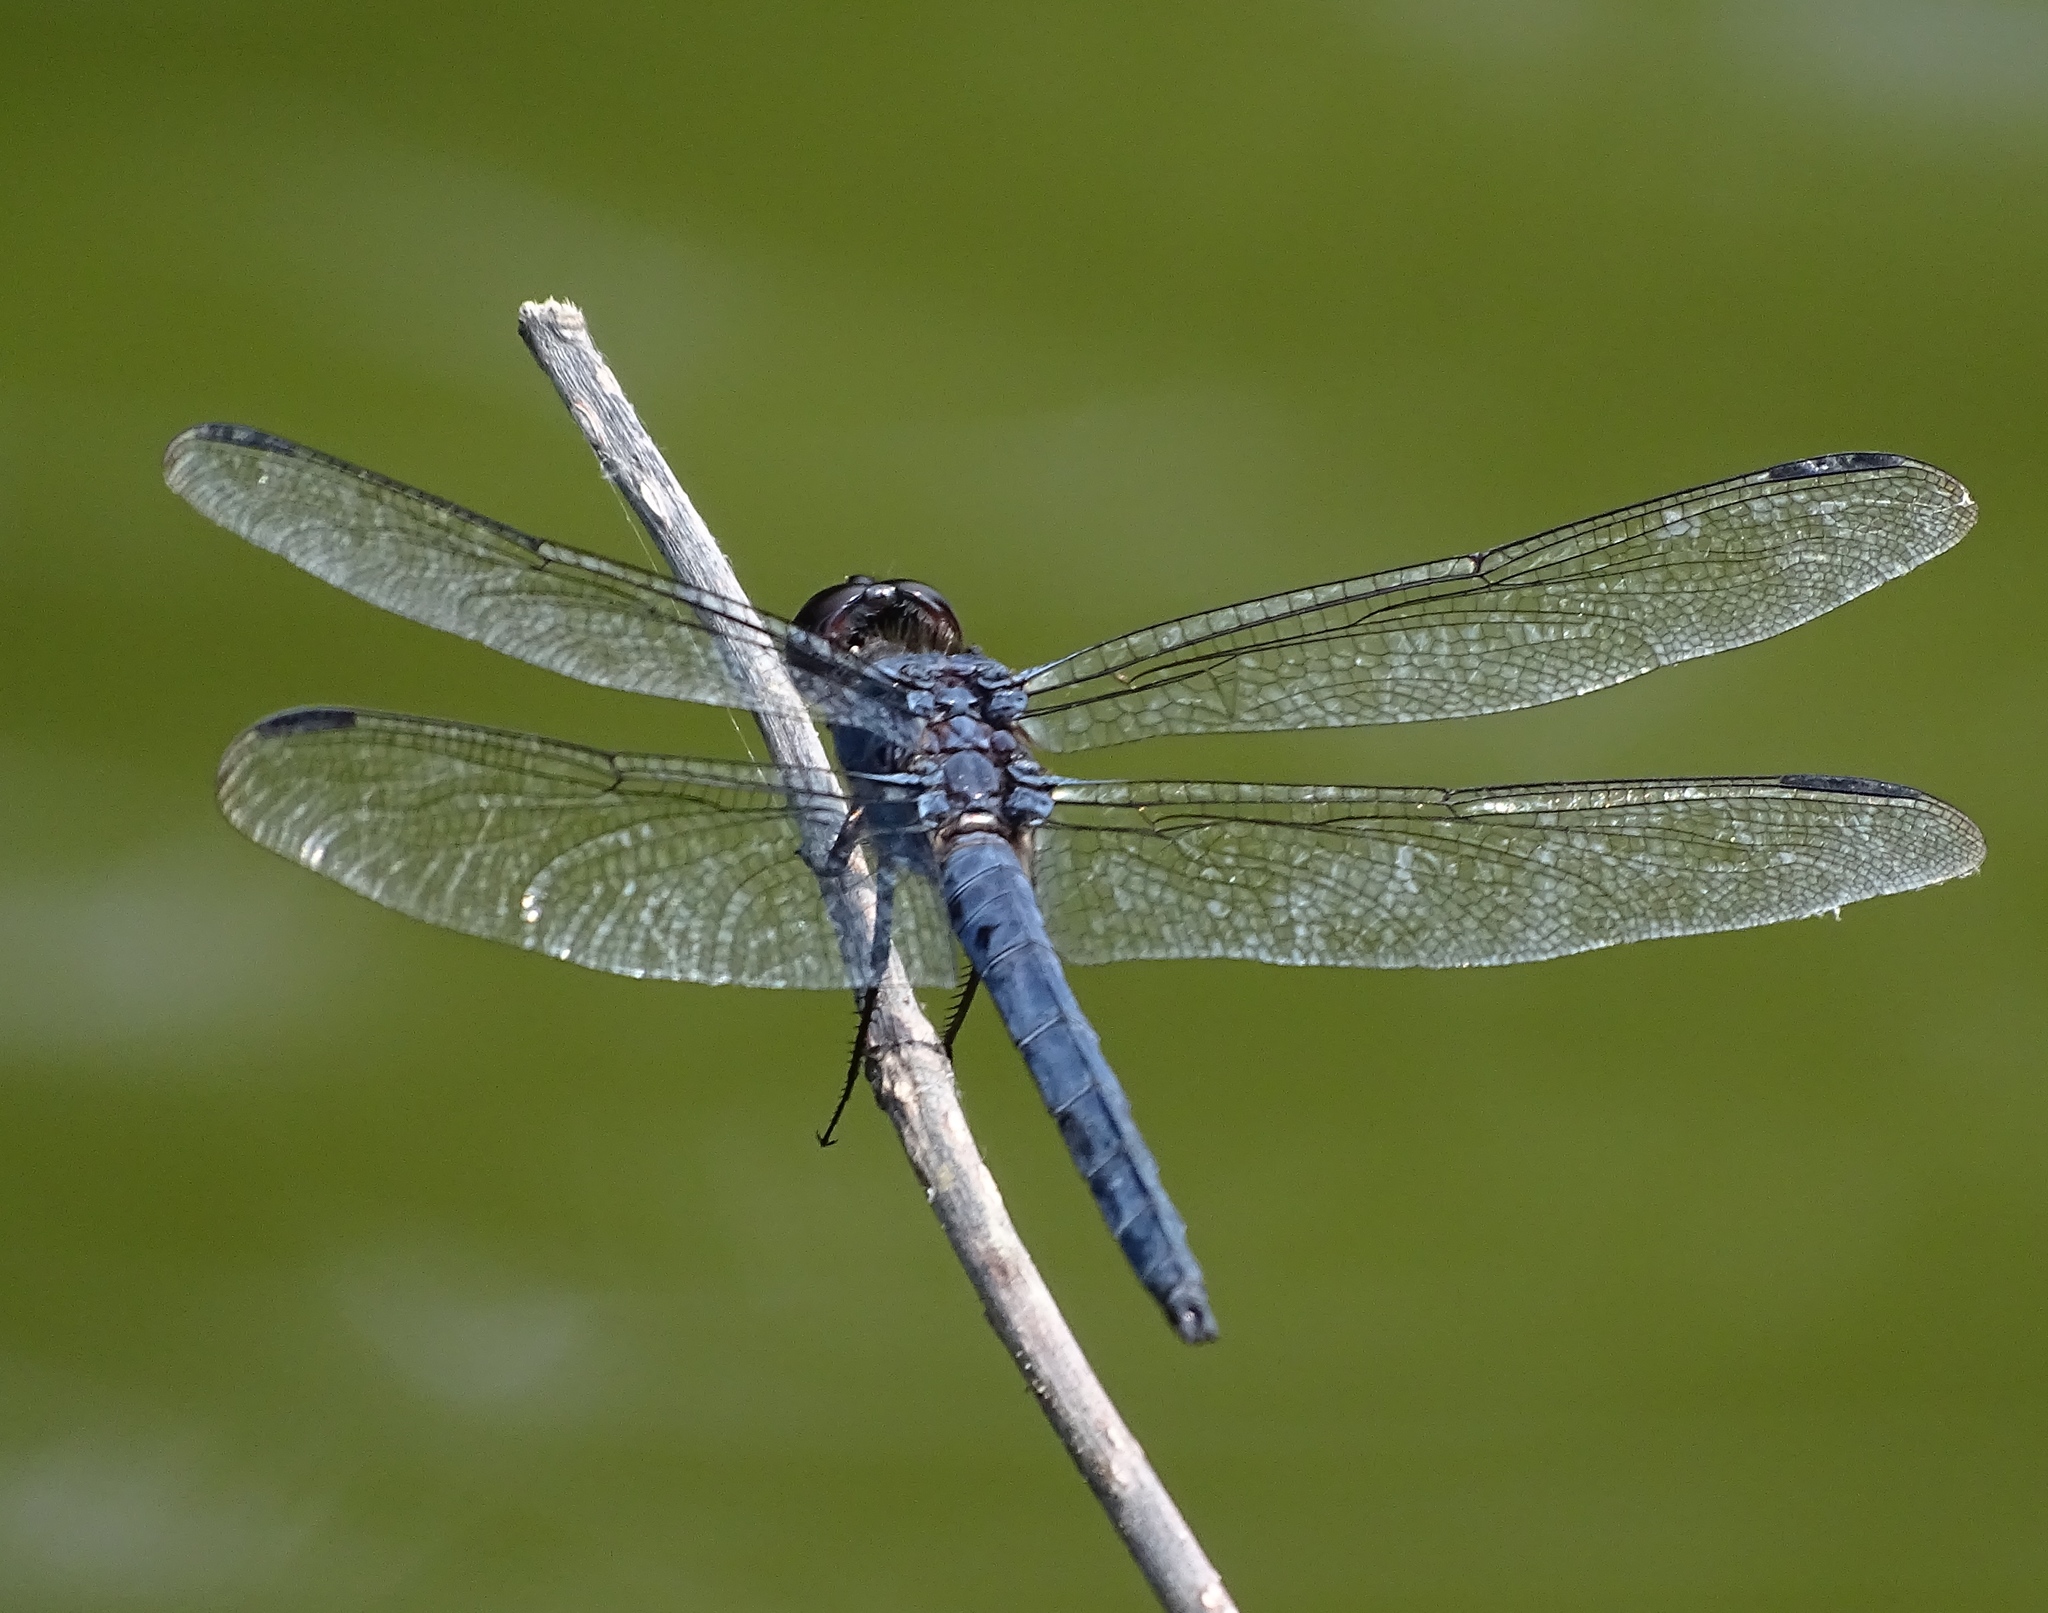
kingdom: Animalia
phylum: Arthropoda
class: Insecta
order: Odonata
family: Libellulidae
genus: Libellula
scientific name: Libellula incesta
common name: Slaty skimmer
